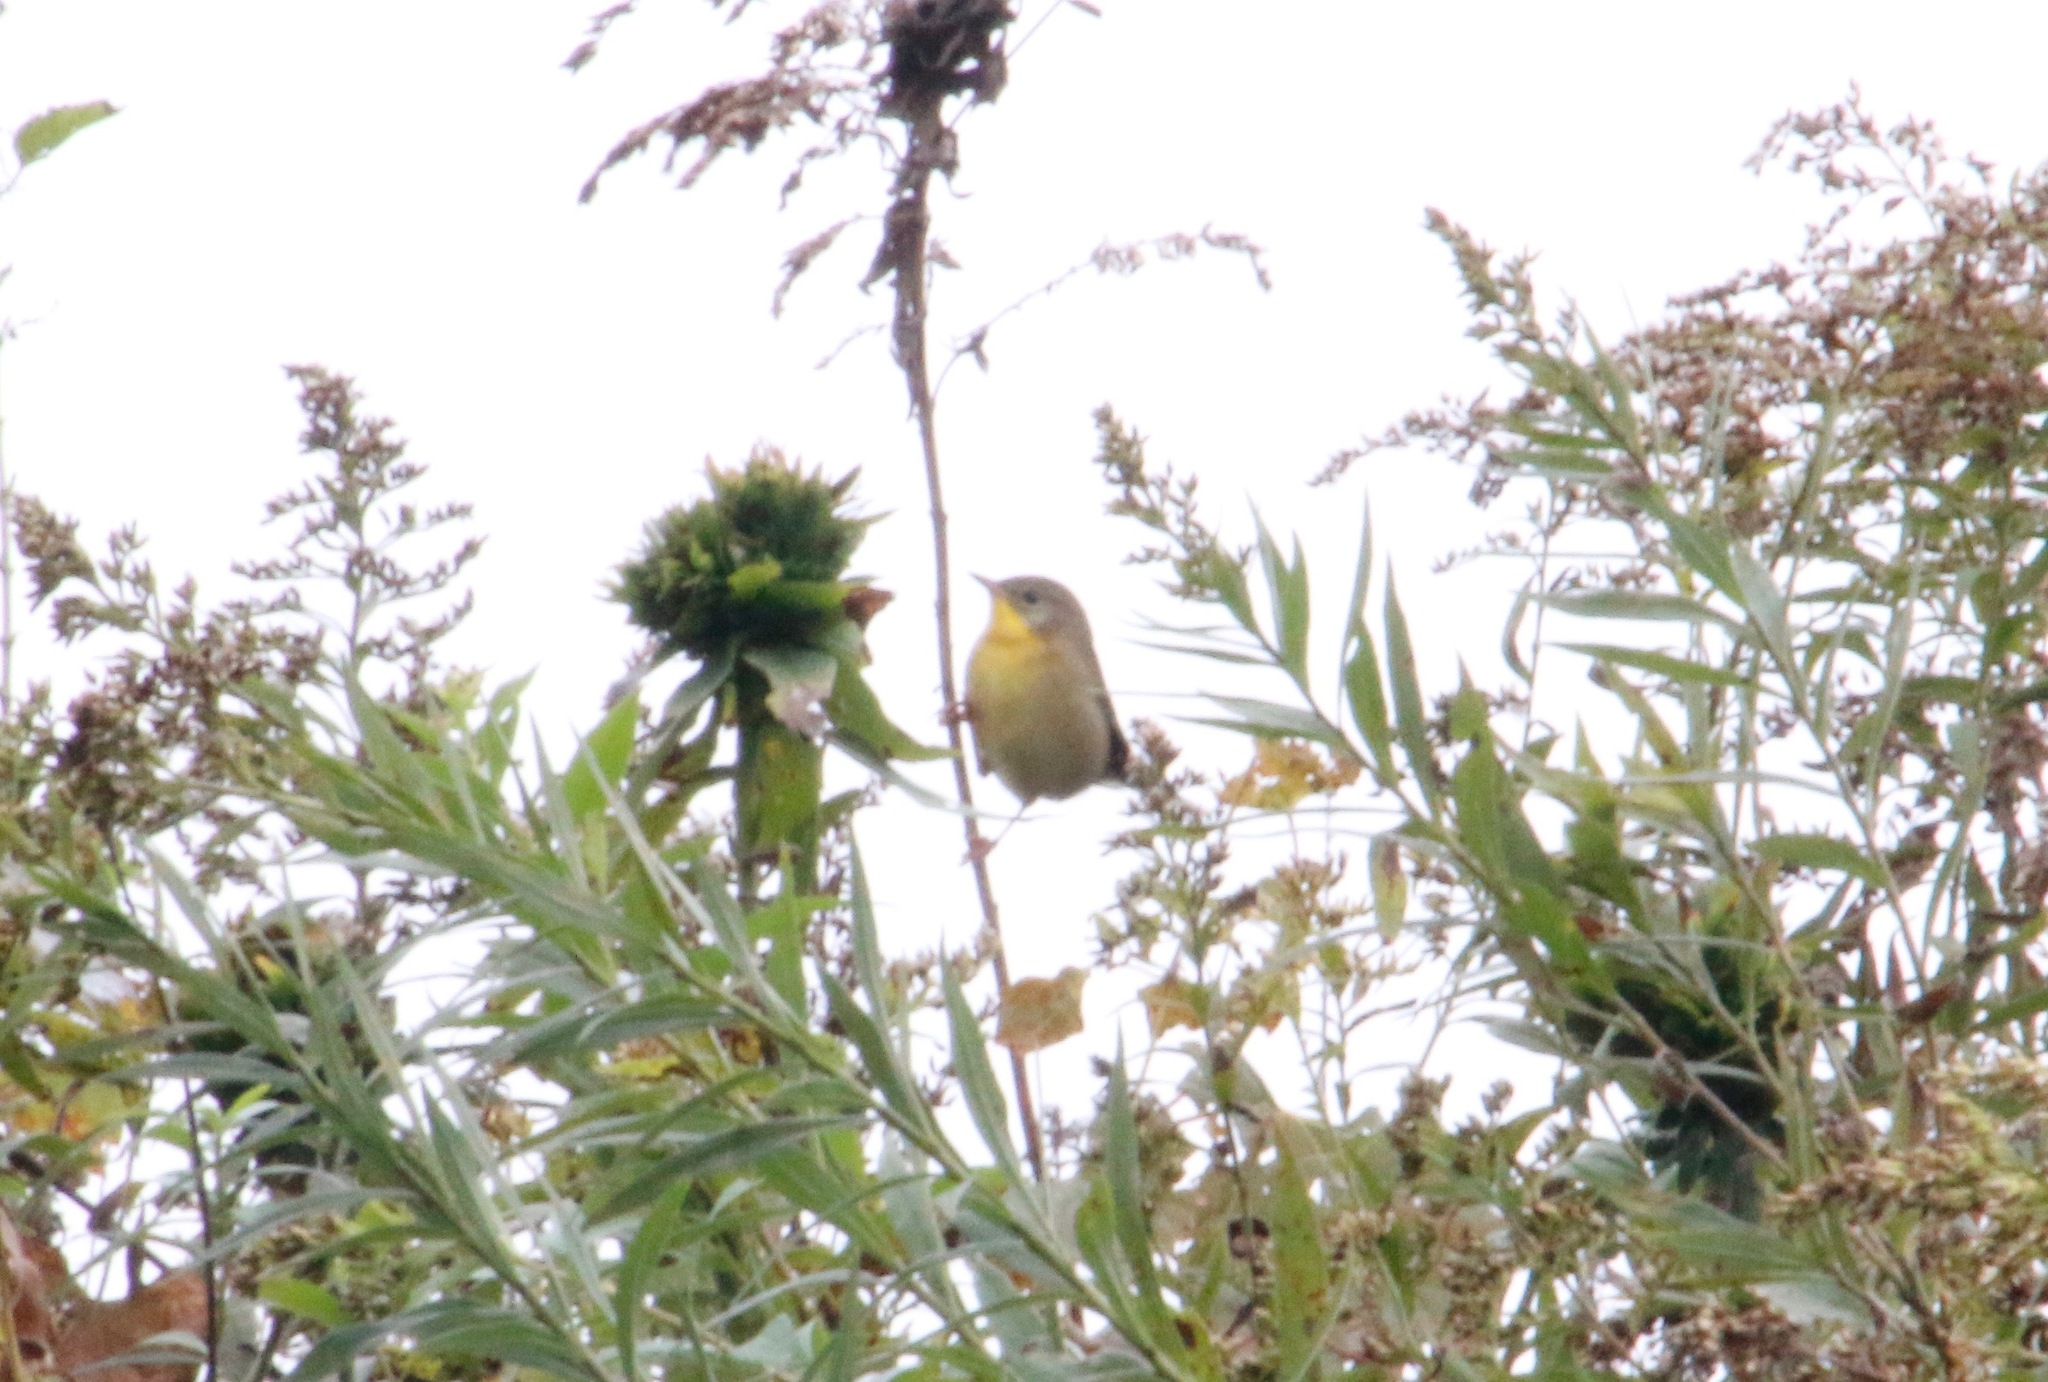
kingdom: Animalia
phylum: Chordata
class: Aves
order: Passeriformes
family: Parulidae
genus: Geothlypis
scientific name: Geothlypis trichas
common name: Common yellowthroat
